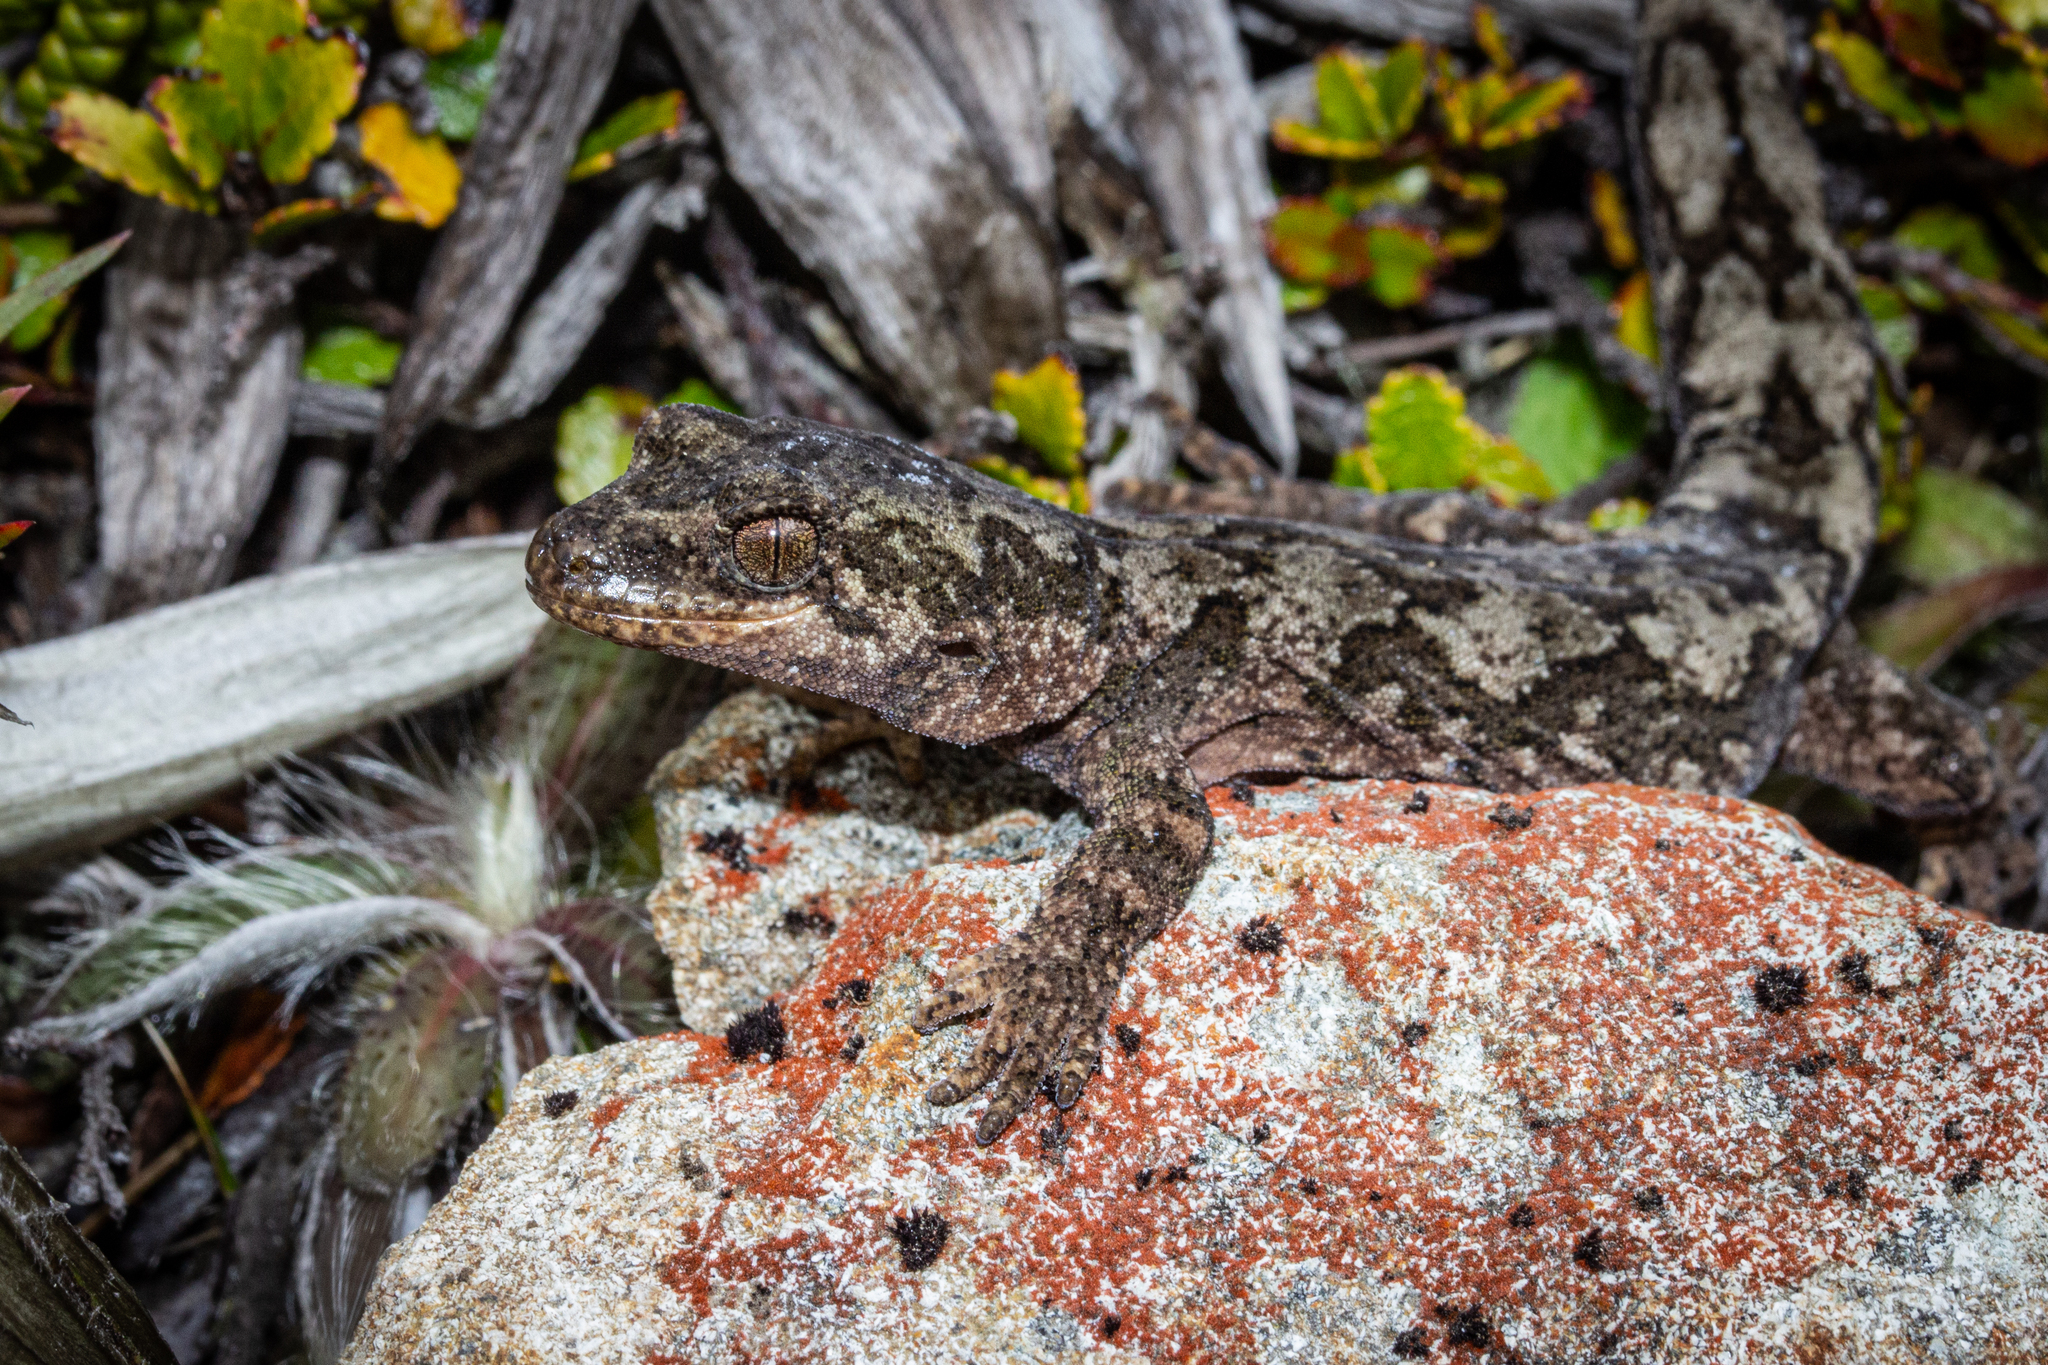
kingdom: Animalia
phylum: Chordata
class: Squamata
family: Diplodactylidae
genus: Mokopirirakau
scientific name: Mokopirirakau cryptozoicus
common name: Takitimu gecko
